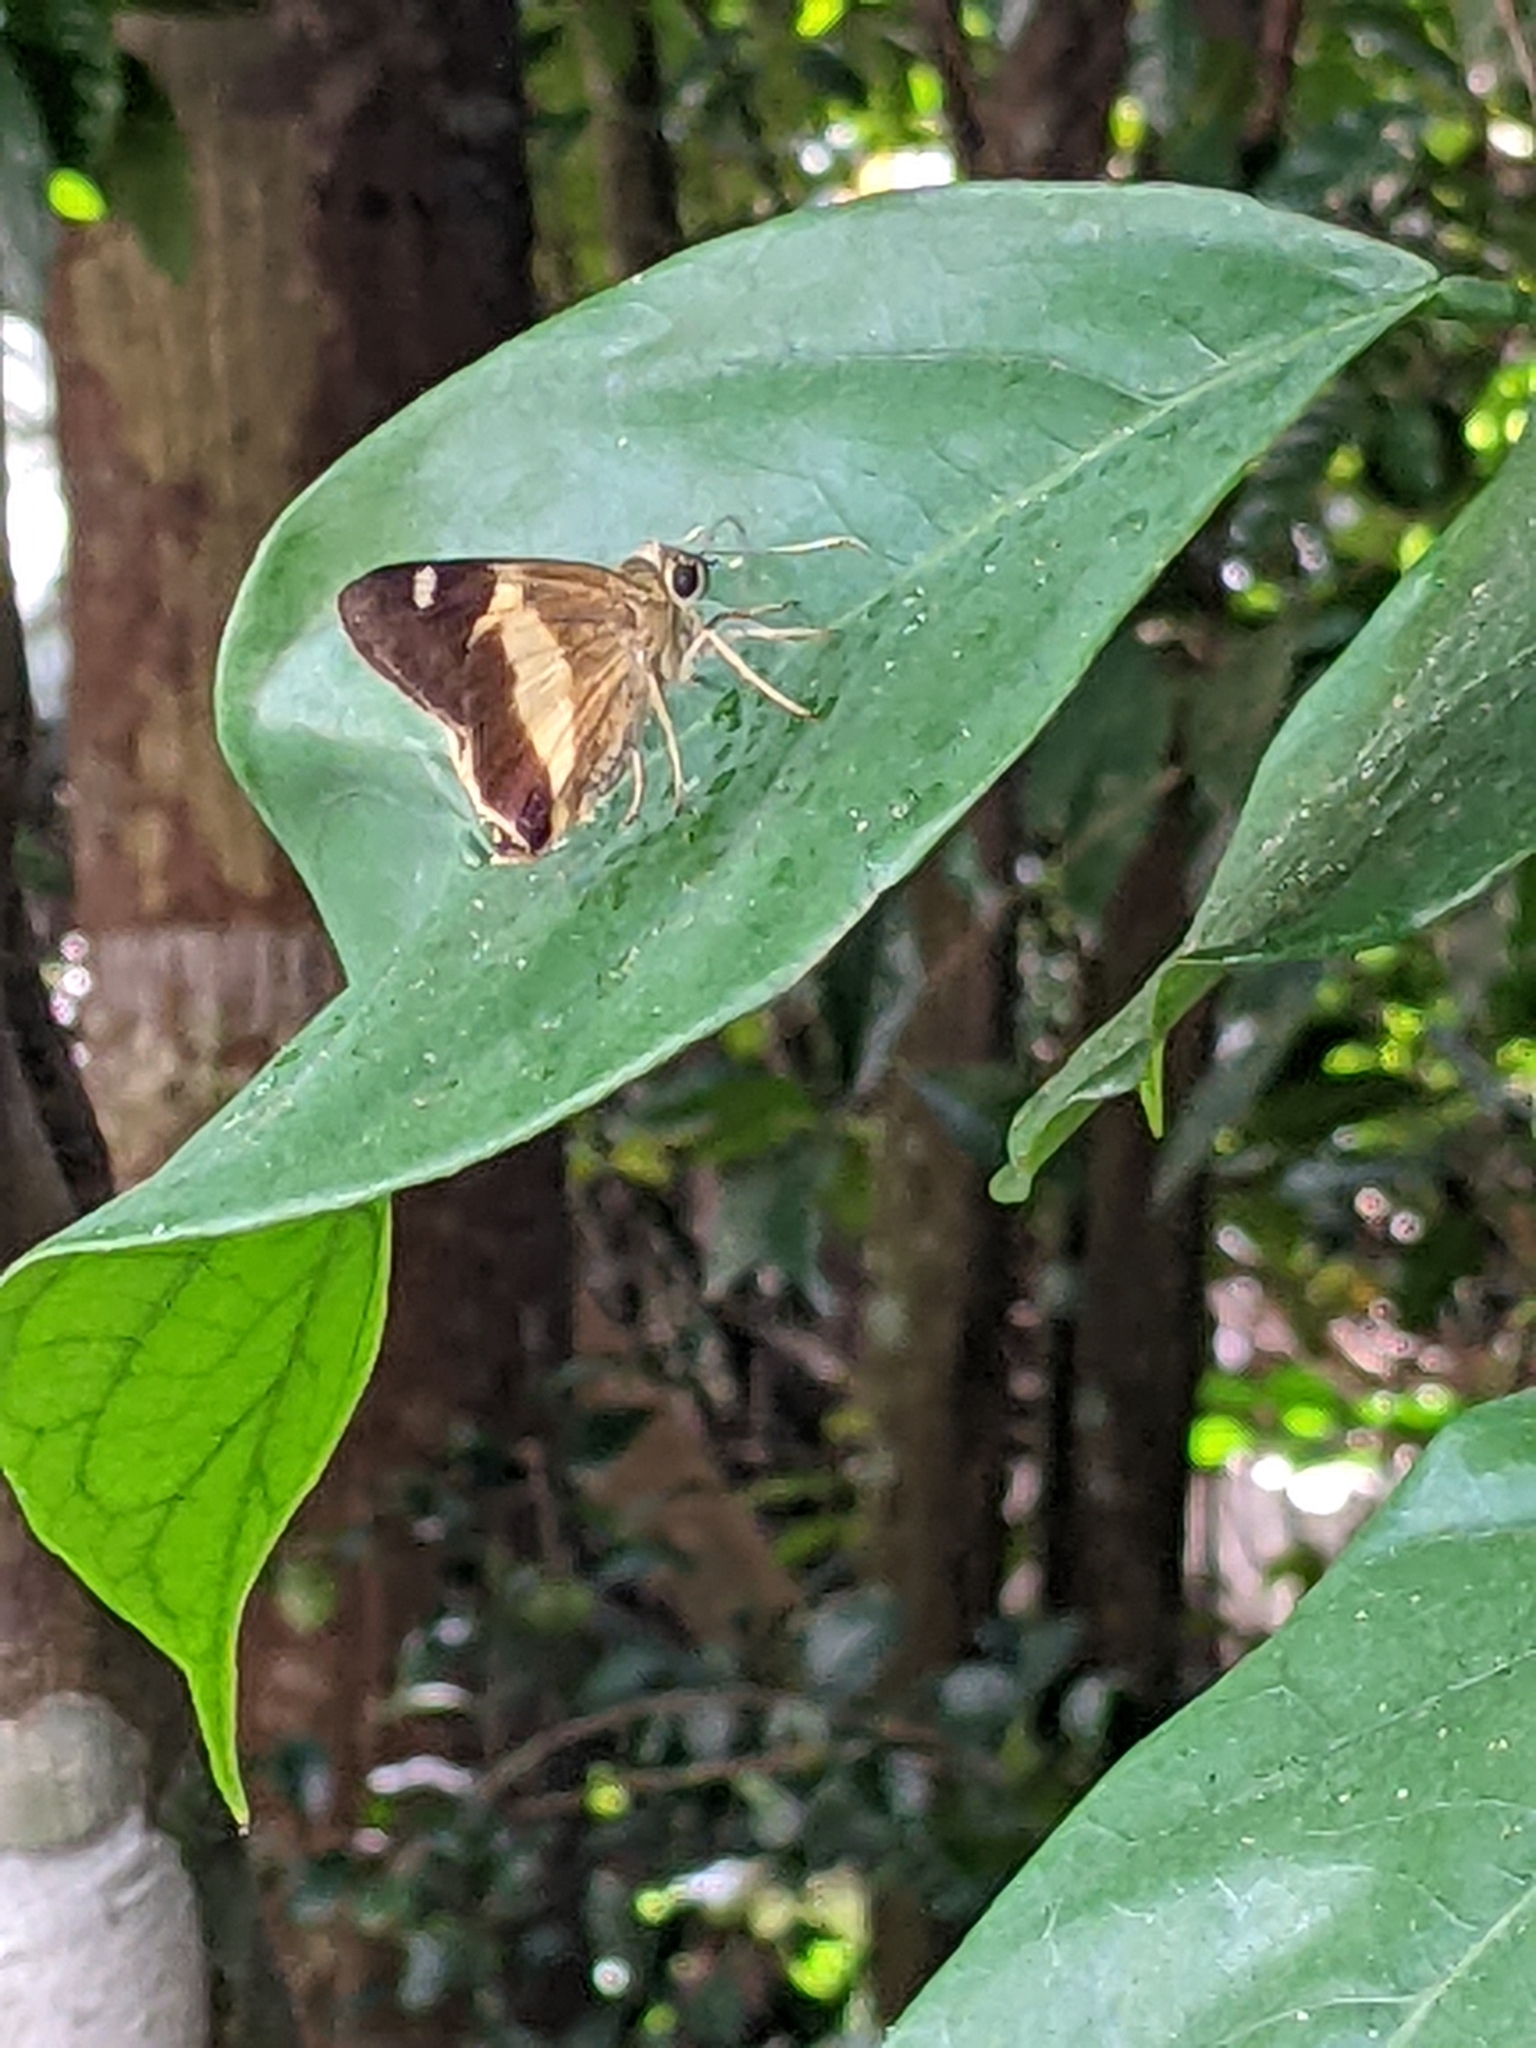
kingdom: Animalia
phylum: Arthropoda
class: Insecta
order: Lepidoptera
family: Hesperiidae
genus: Hasora
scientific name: Hasora schoenherr
